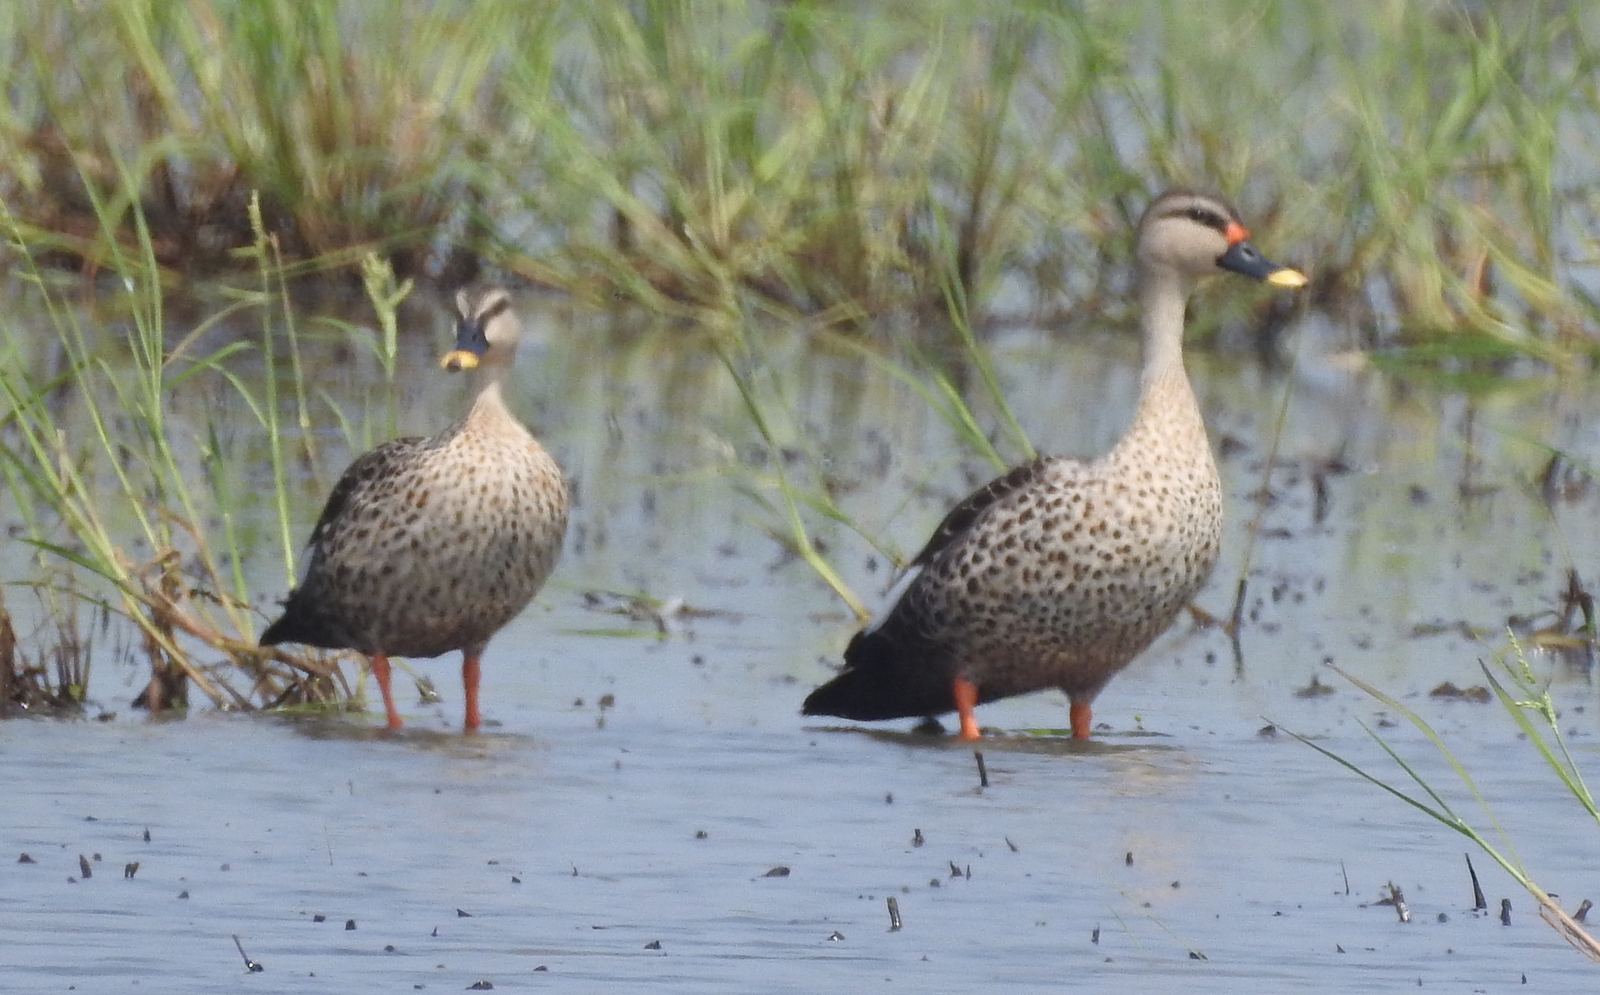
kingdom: Animalia
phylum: Chordata
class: Aves
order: Anseriformes
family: Anatidae
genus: Anas
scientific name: Anas poecilorhyncha
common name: Indian spot-billed duck
